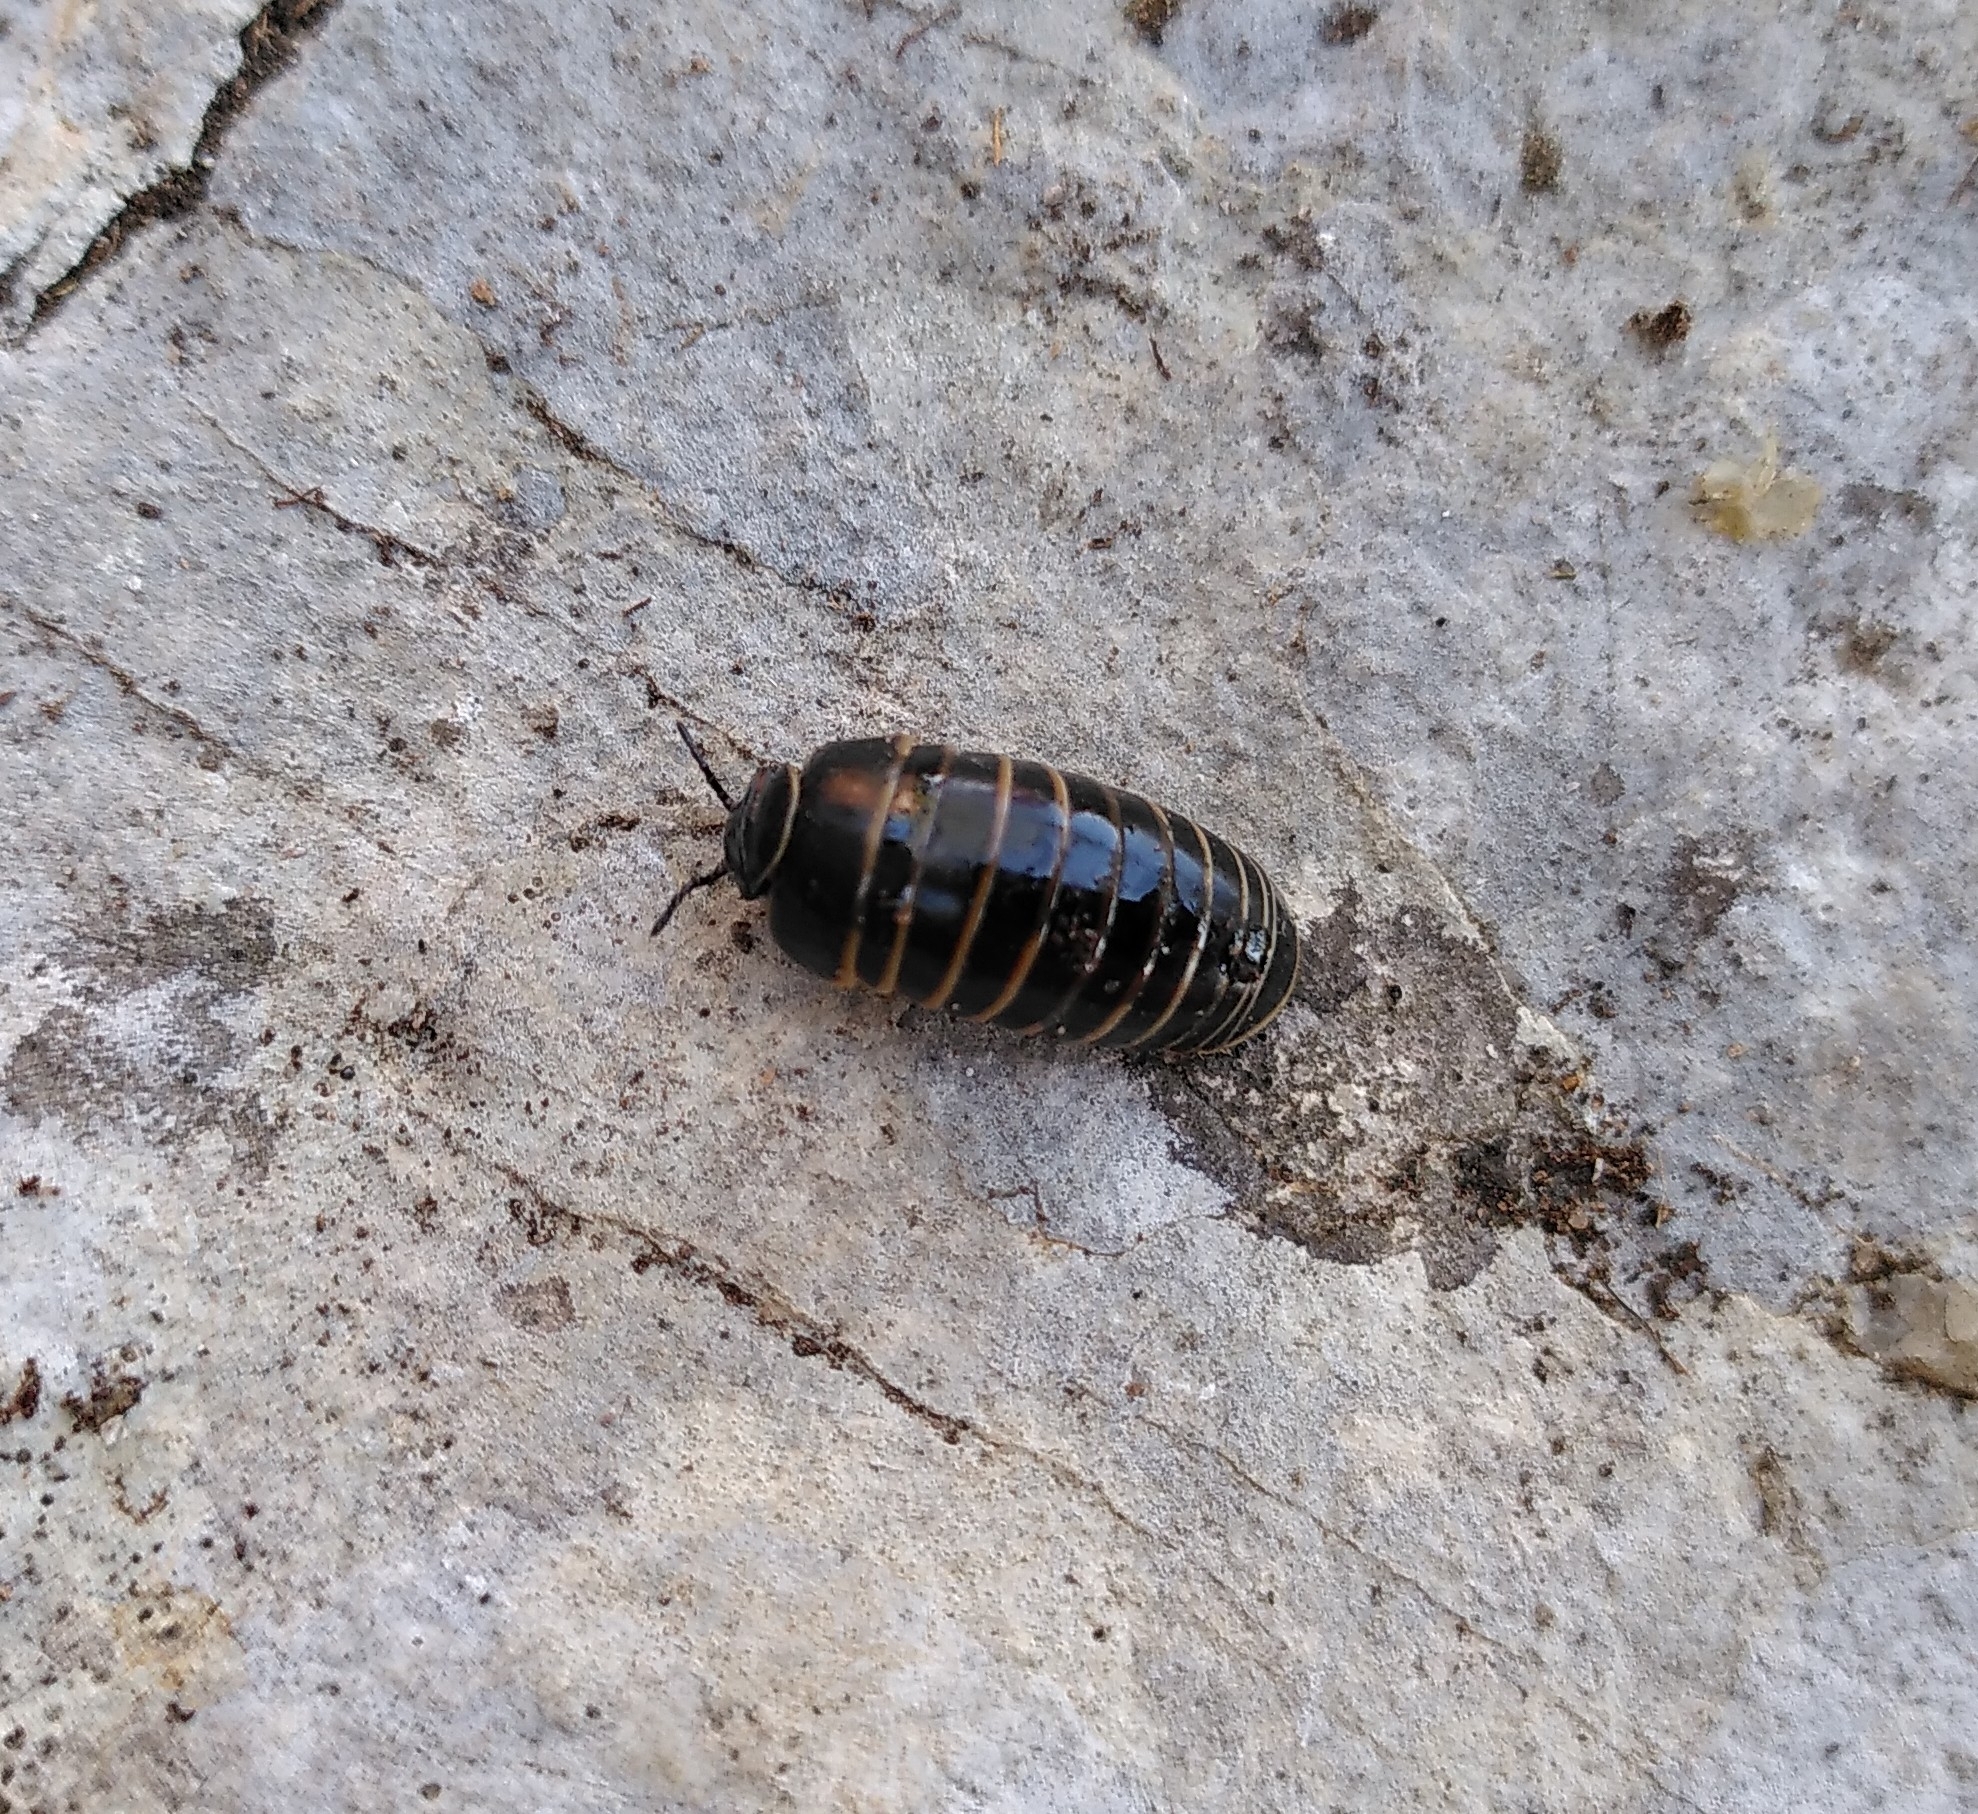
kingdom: Animalia
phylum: Arthropoda
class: Diplopoda
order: Glomerida
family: Glomeridae
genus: Glomeris
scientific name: Glomeris marginata
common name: Bordered pill millipede
